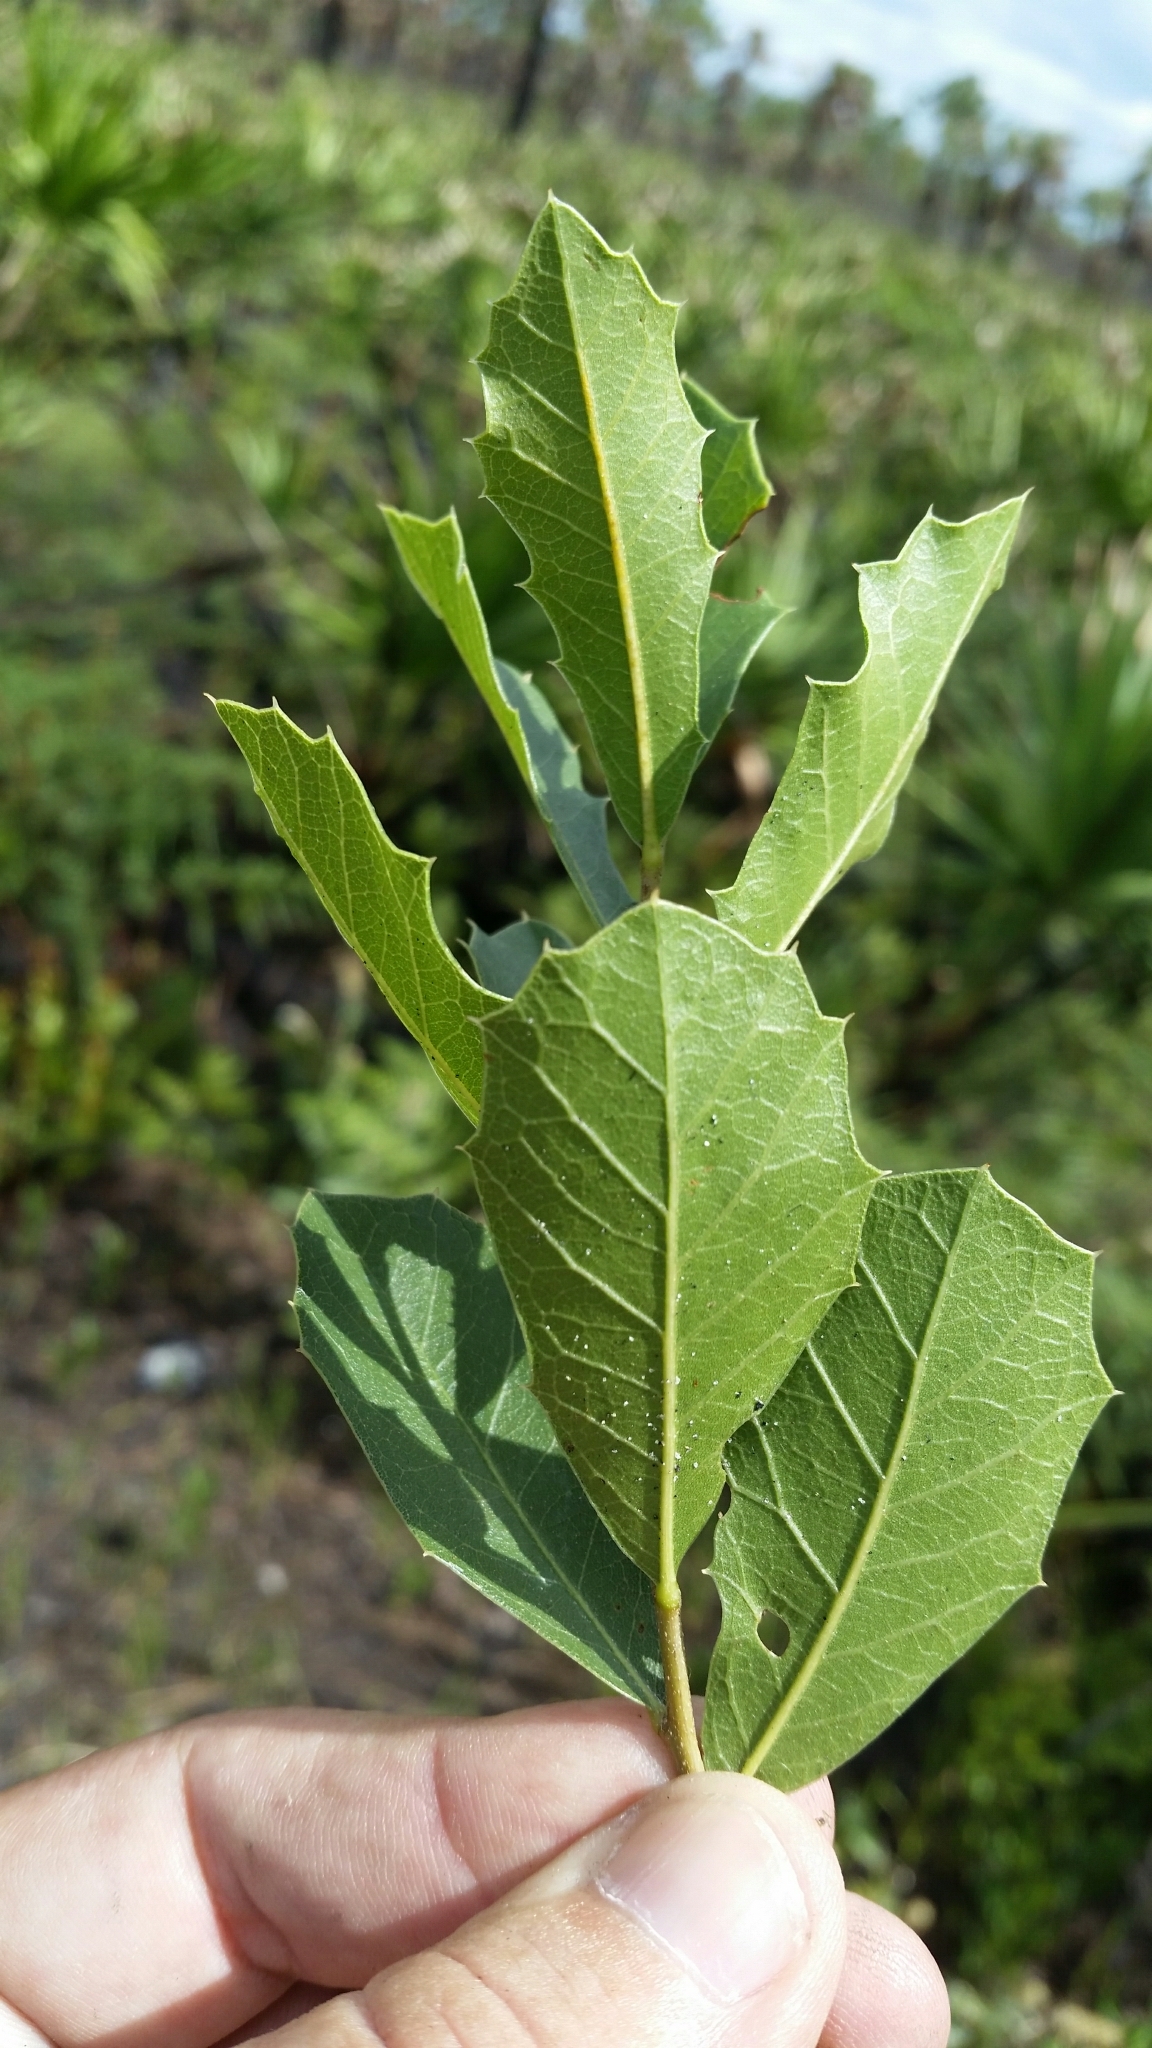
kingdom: Plantae
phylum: Tracheophyta
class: Magnoliopsida
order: Fagales
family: Fagaceae
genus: Quercus
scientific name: Quercus minima
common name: Dwarf live oak
